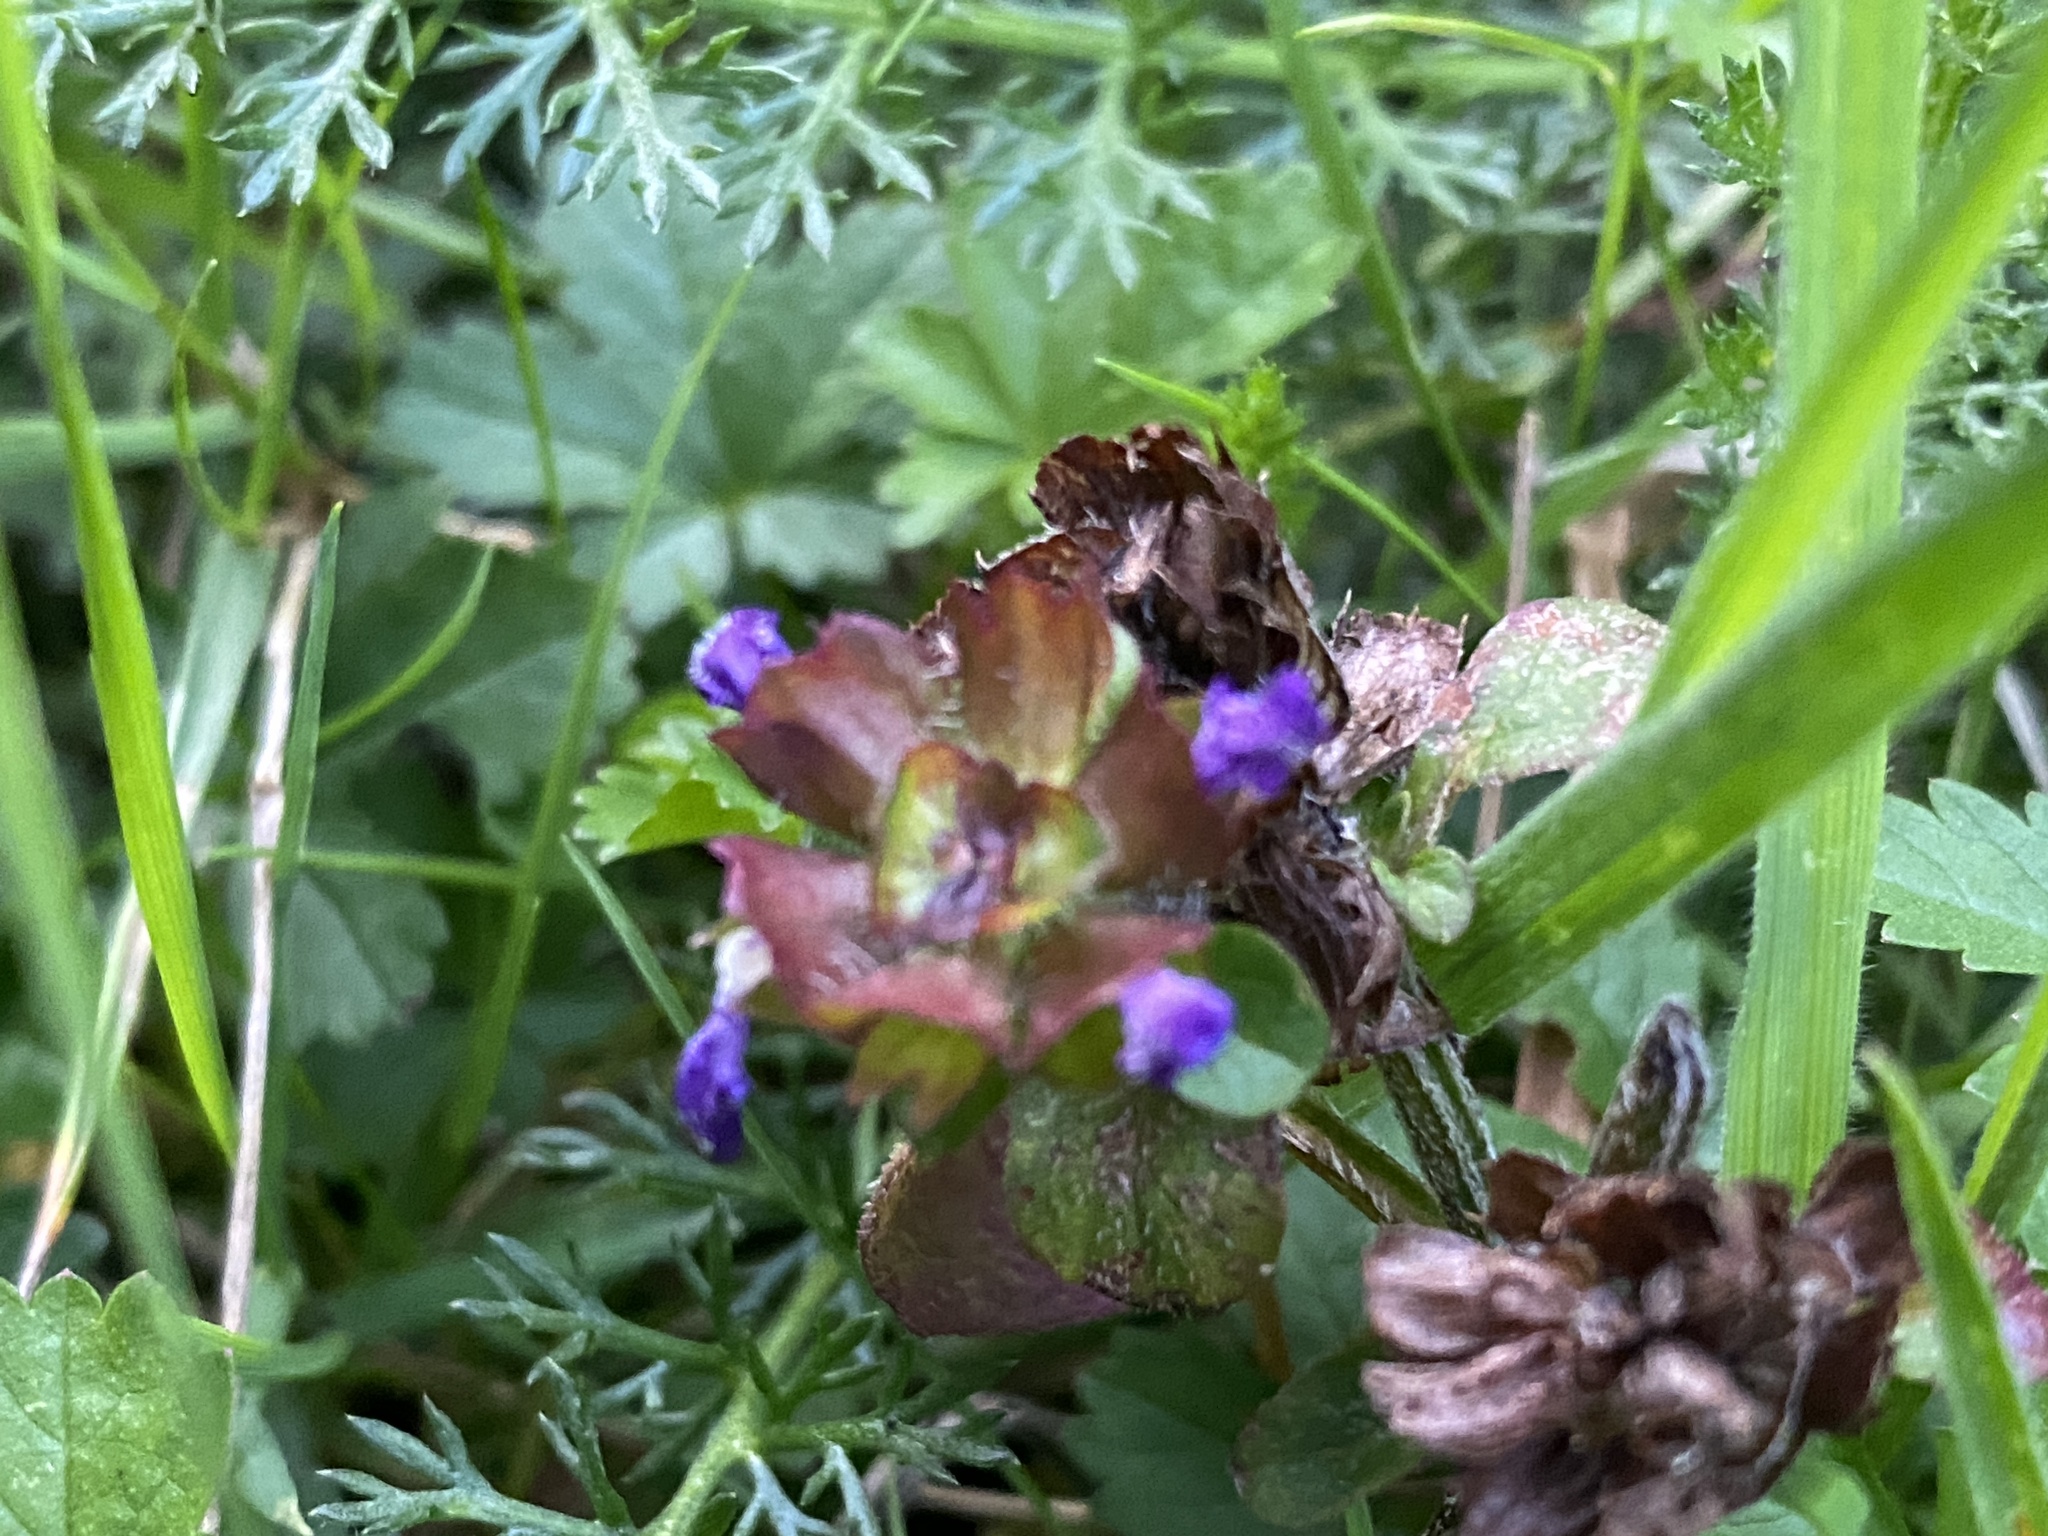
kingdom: Plantae
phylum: Tracheophyta
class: Magnoliopsida
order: Lamiales
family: Lamiaceae
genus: Prunella
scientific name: Prunella vulgaris
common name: Heal-all
